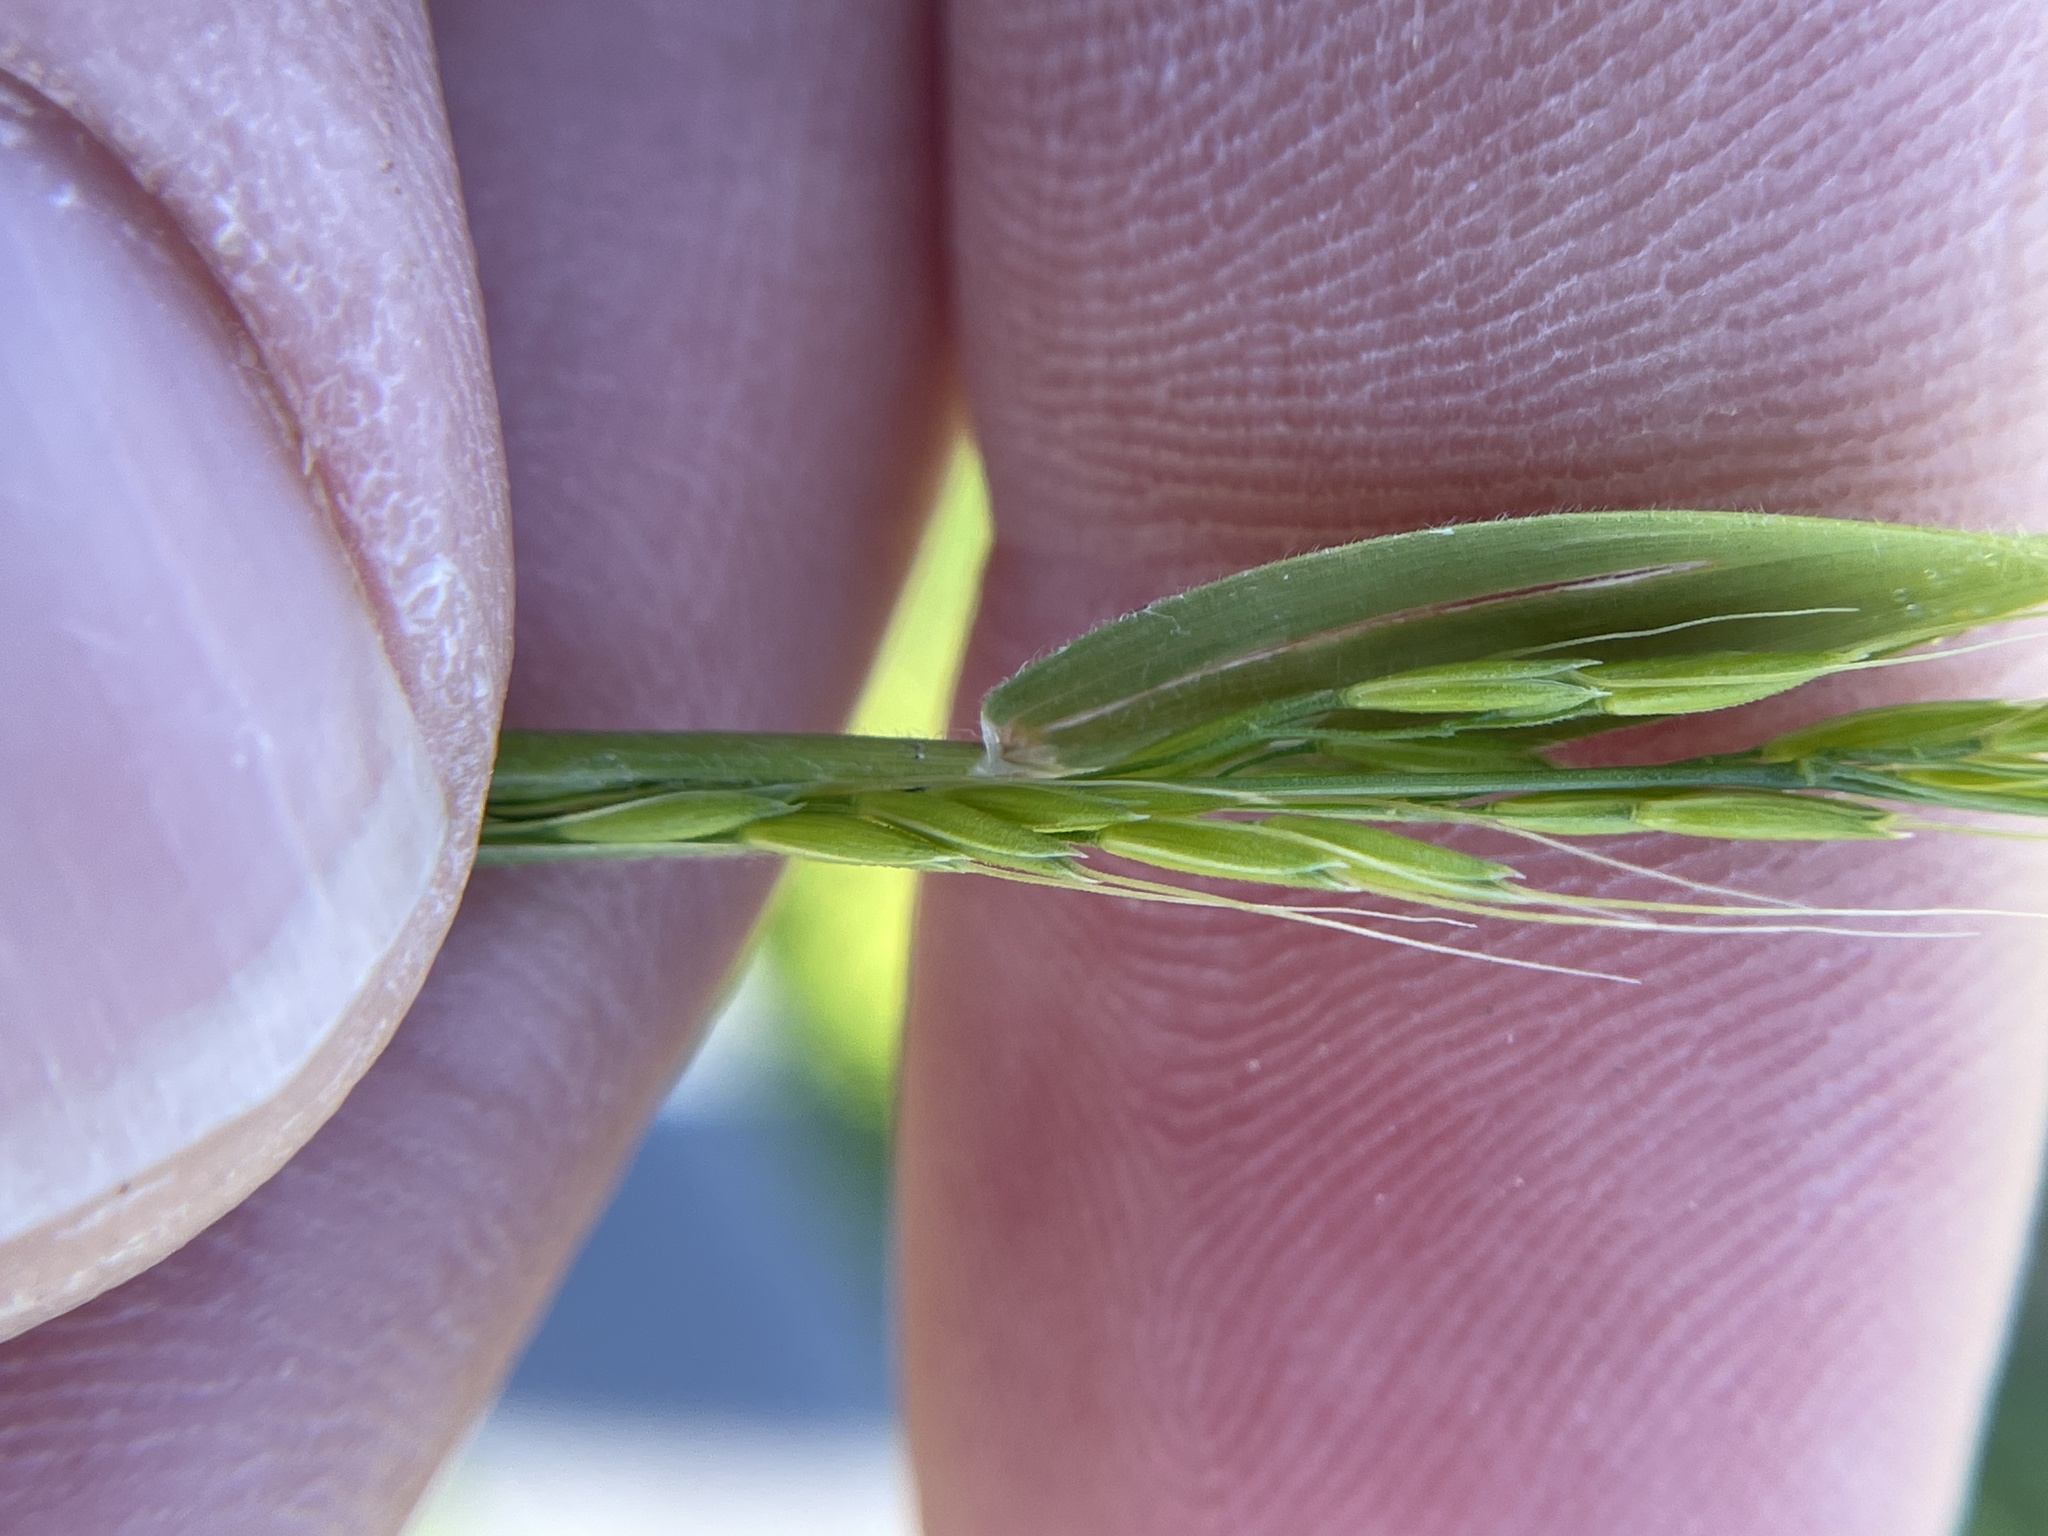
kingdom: Plantae
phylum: Tracheophyta
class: Liliopsida
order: Poales
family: Poaceae
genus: Limnodea
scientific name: Limnodea arkansana
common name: Ozark-grass
